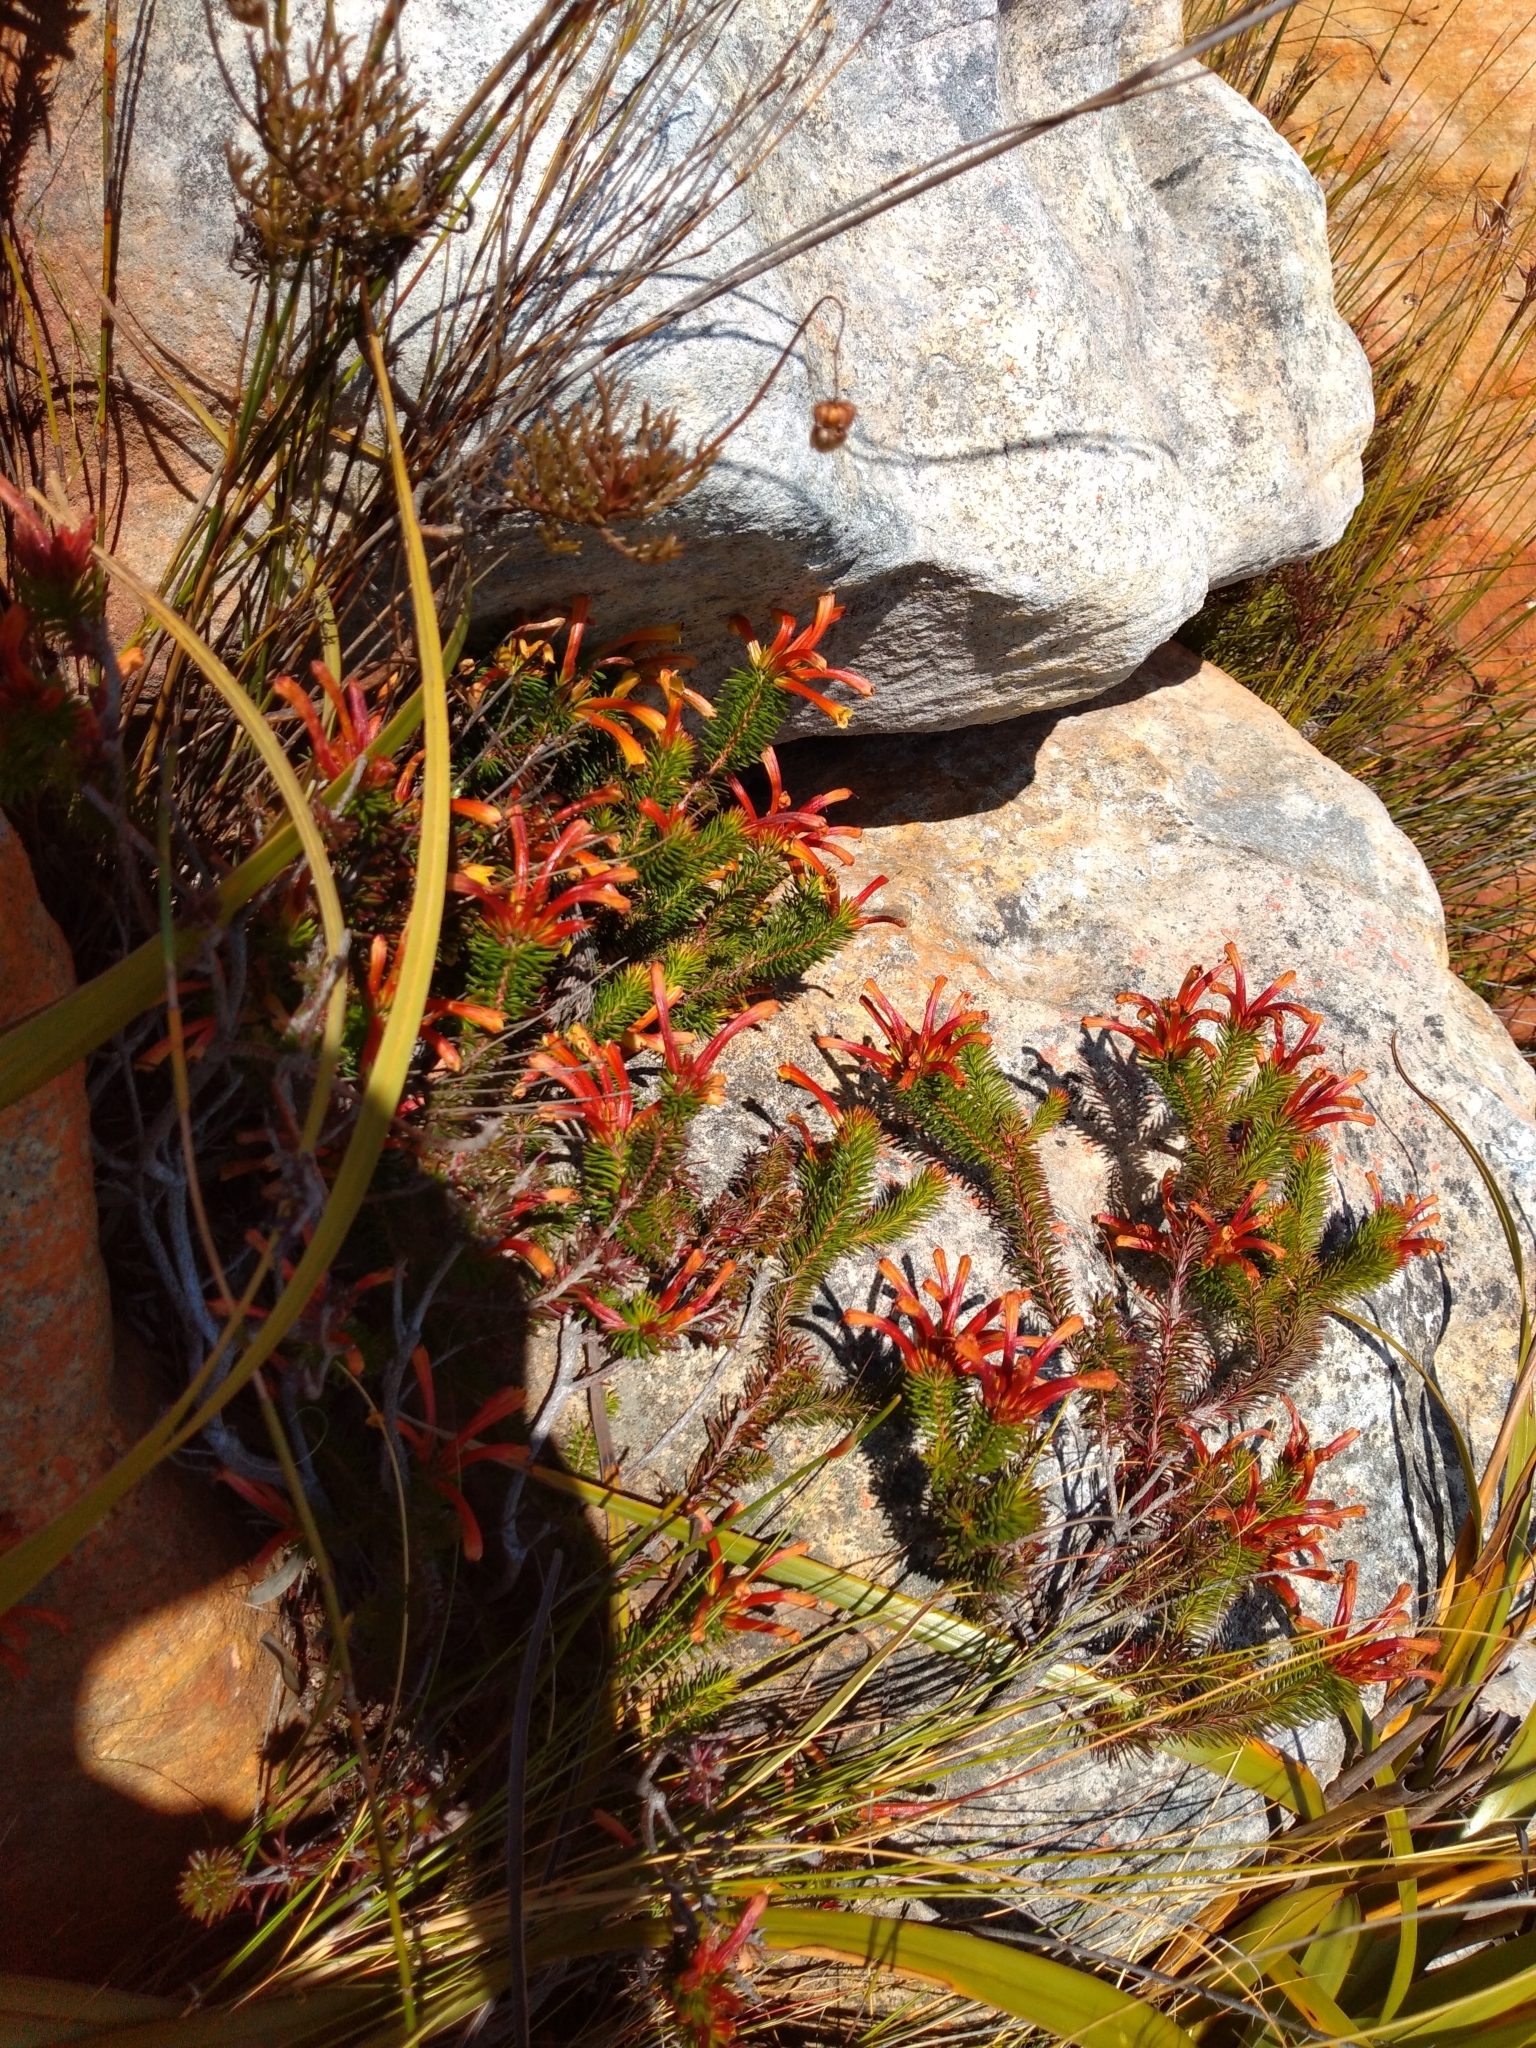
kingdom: Plantae
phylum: Tracheophyta
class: Magnoliopsida
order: Ericales
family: Ericaceae
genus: Erica
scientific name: Erica quadrisulcata
